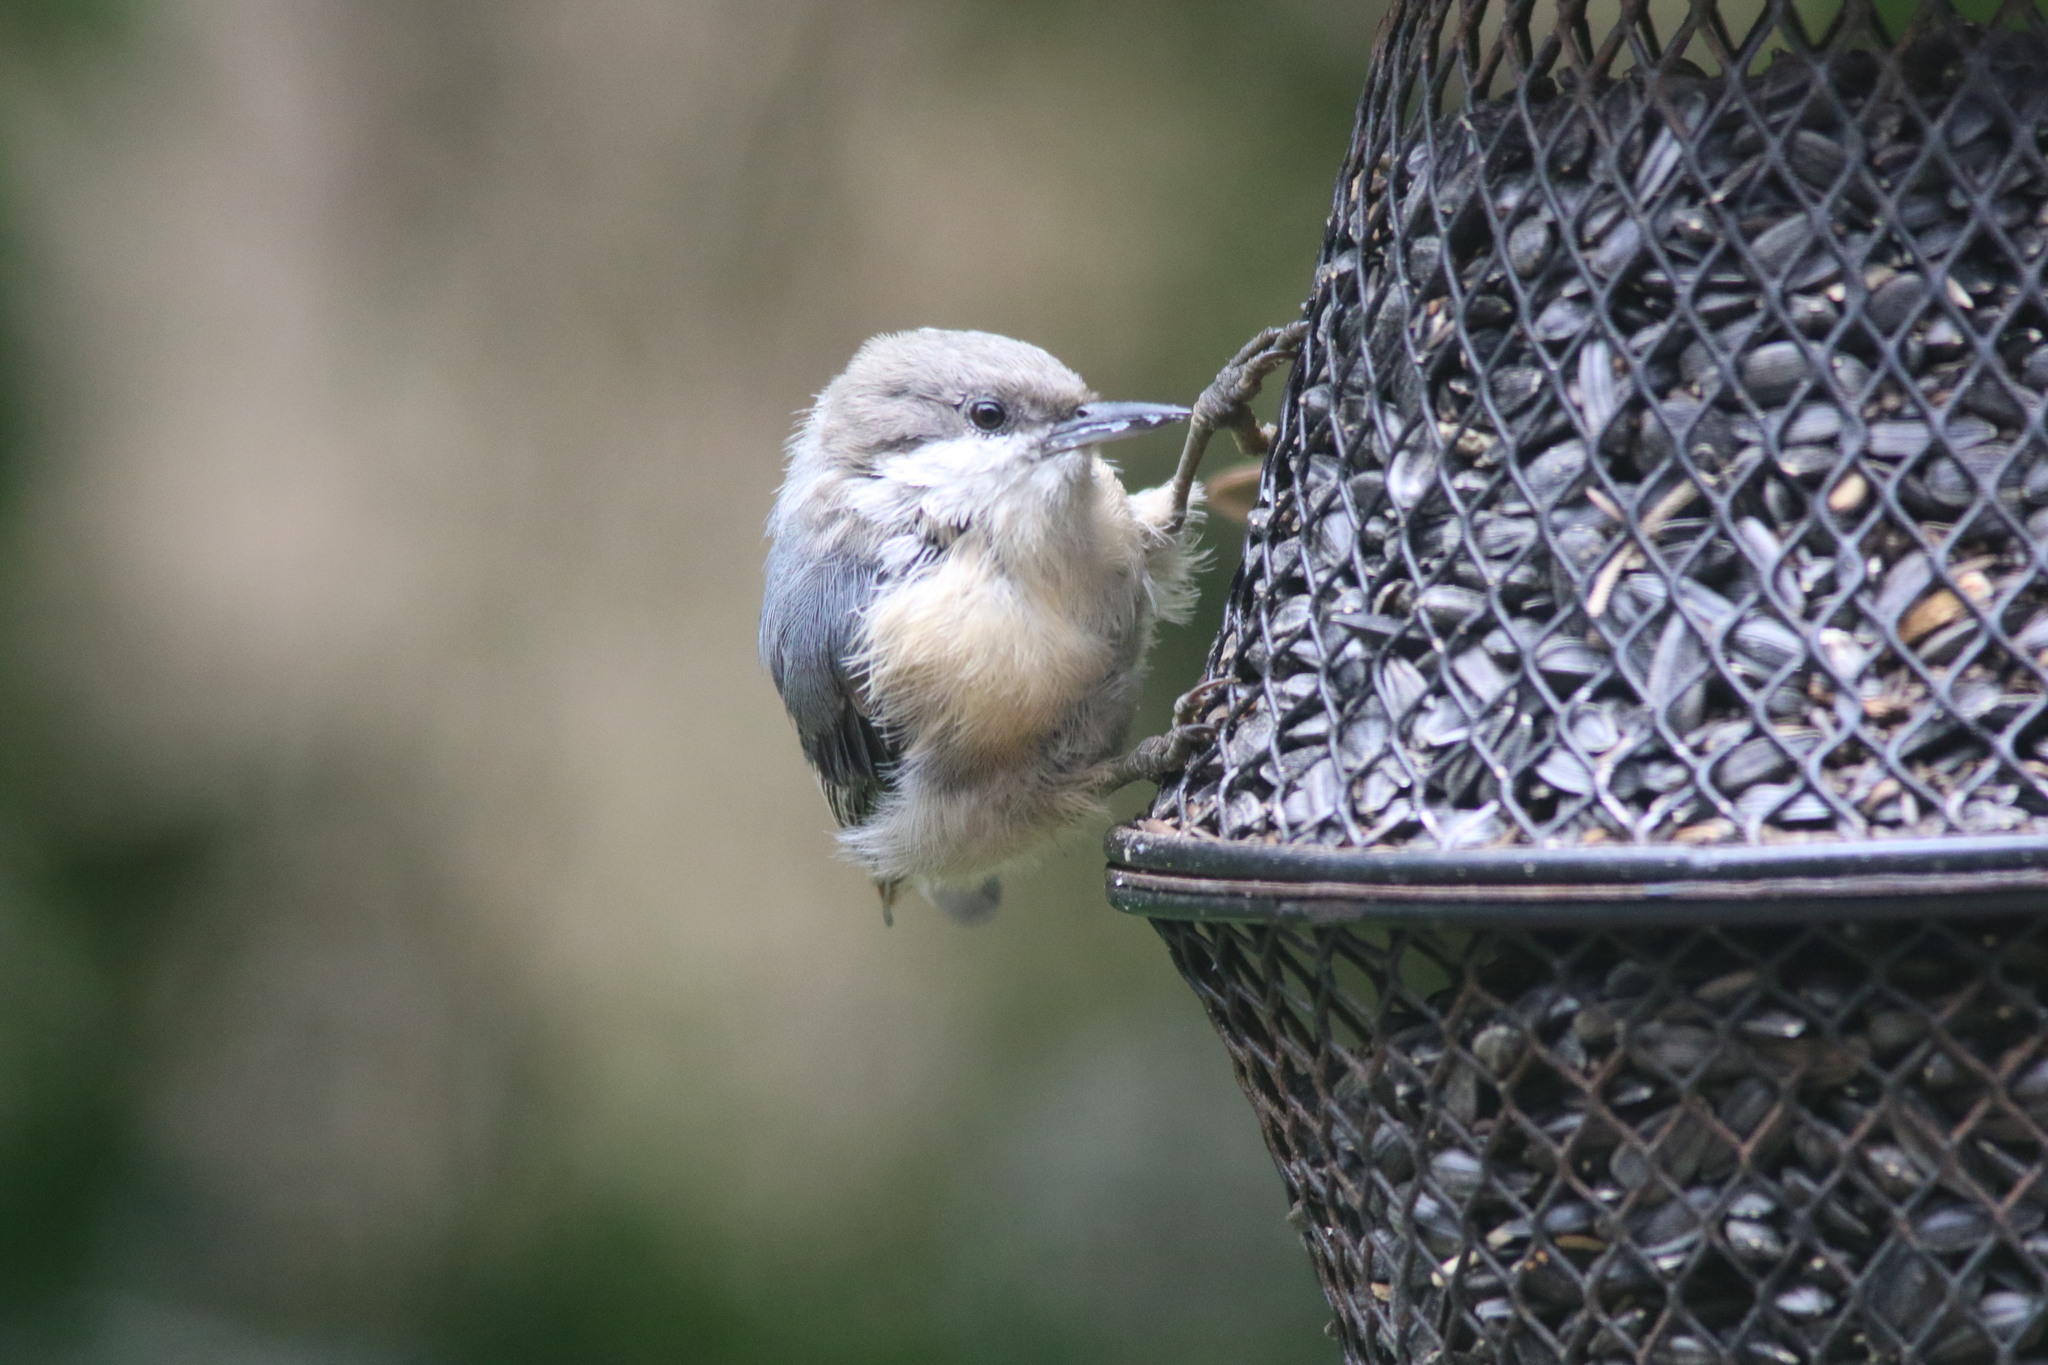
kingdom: Animalia
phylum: Chordata
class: Aves
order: Passeriformes
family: Sittidae
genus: Sitta
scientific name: Sitta pygmaea
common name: Pygmy nuthatch
